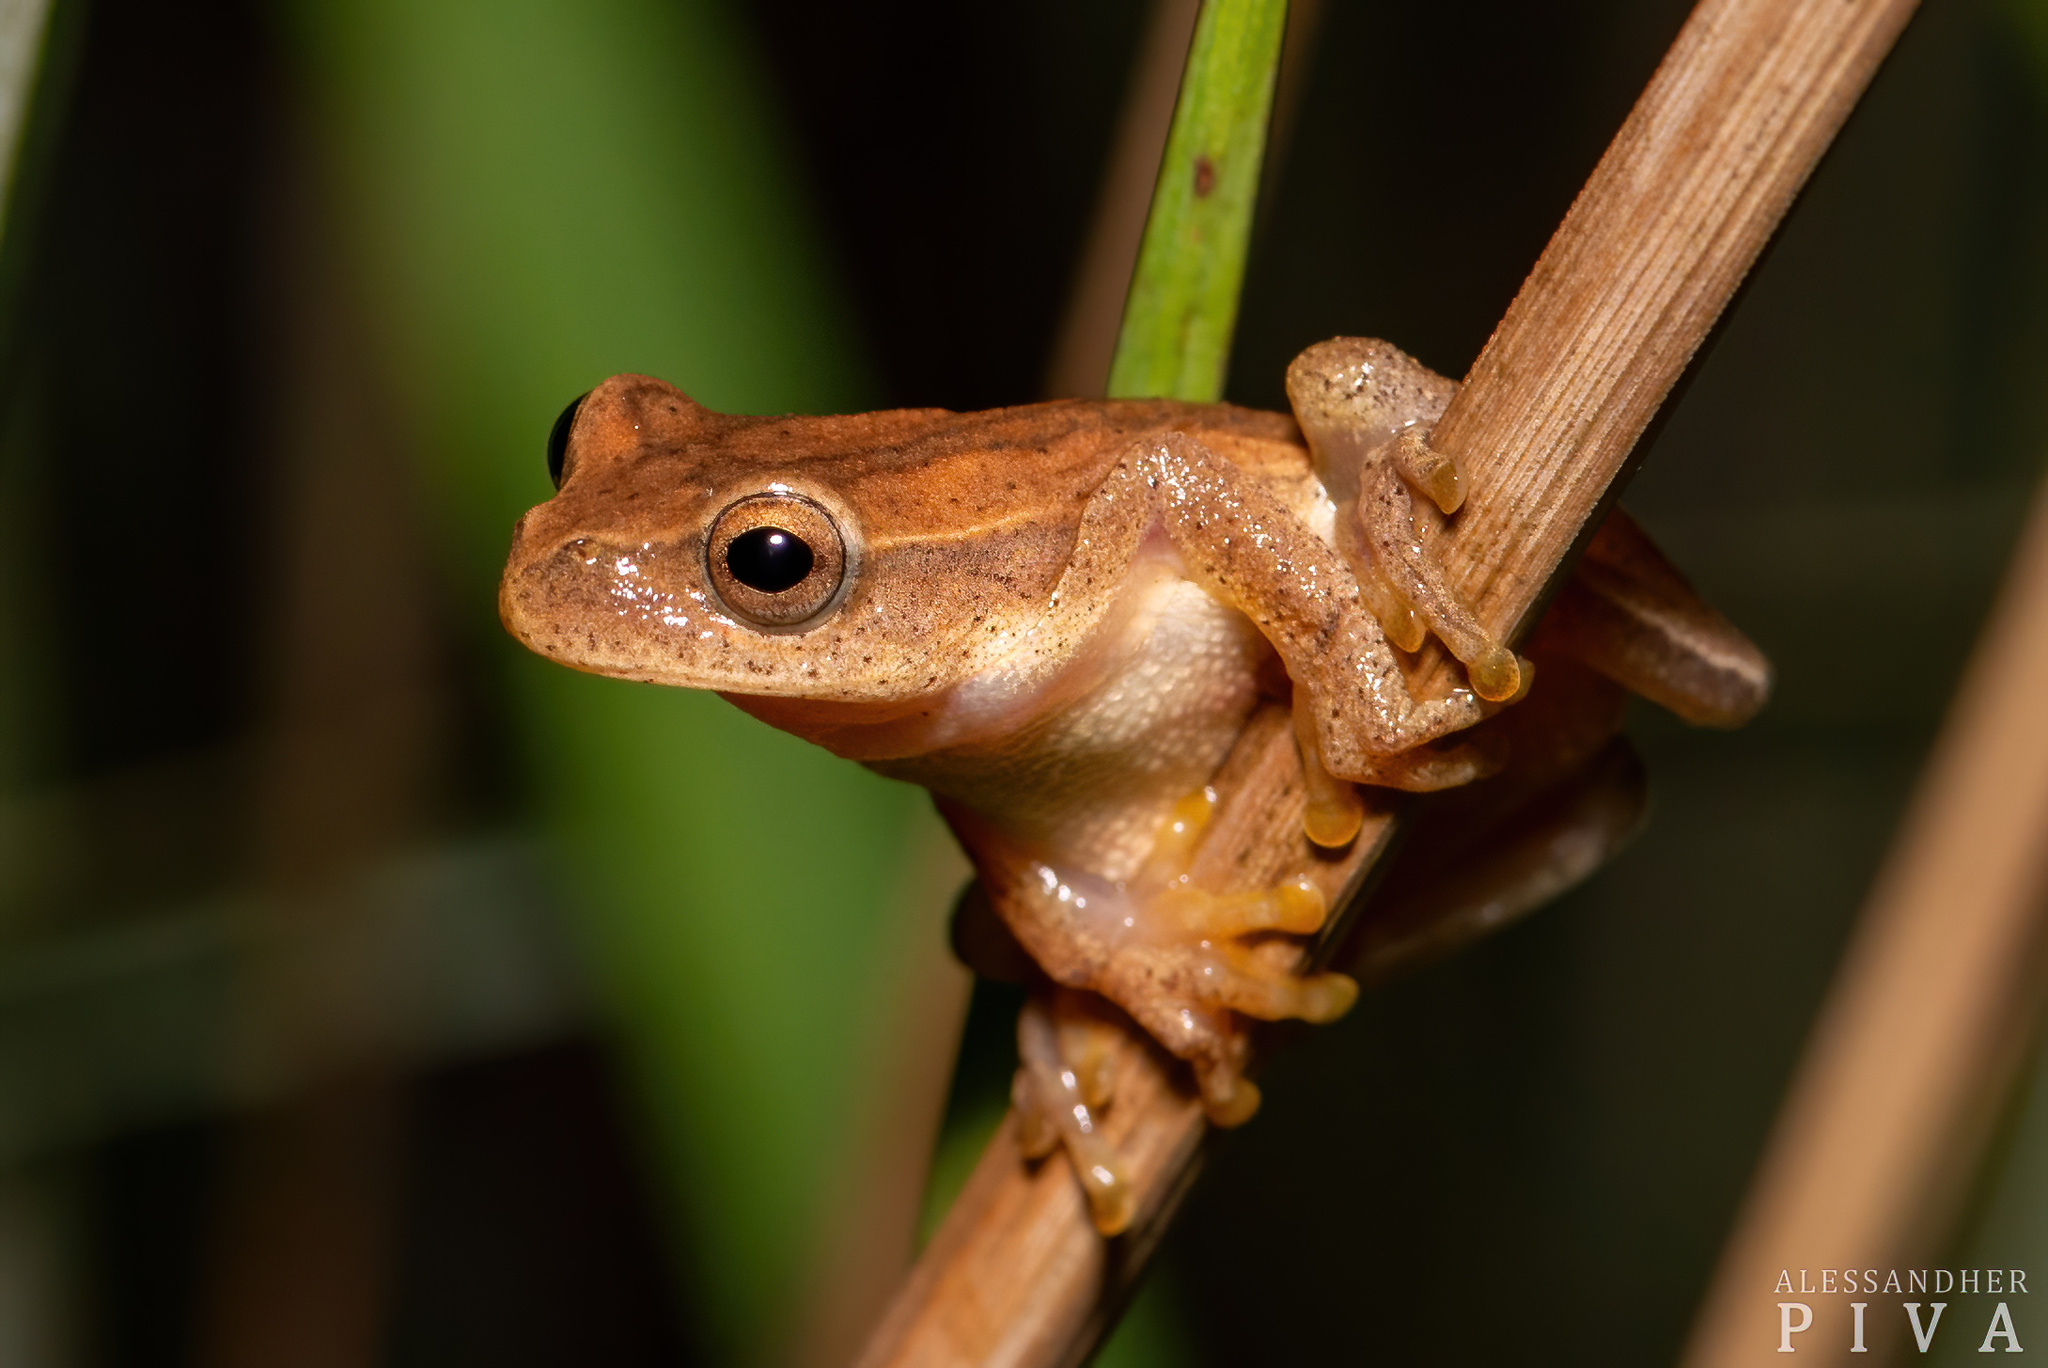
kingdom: Animalia
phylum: Chordata
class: Amphibia
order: Anura
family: Hylidae
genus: Dendropsophus
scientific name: Dendropsophus minutus
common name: Lesser treefrog
